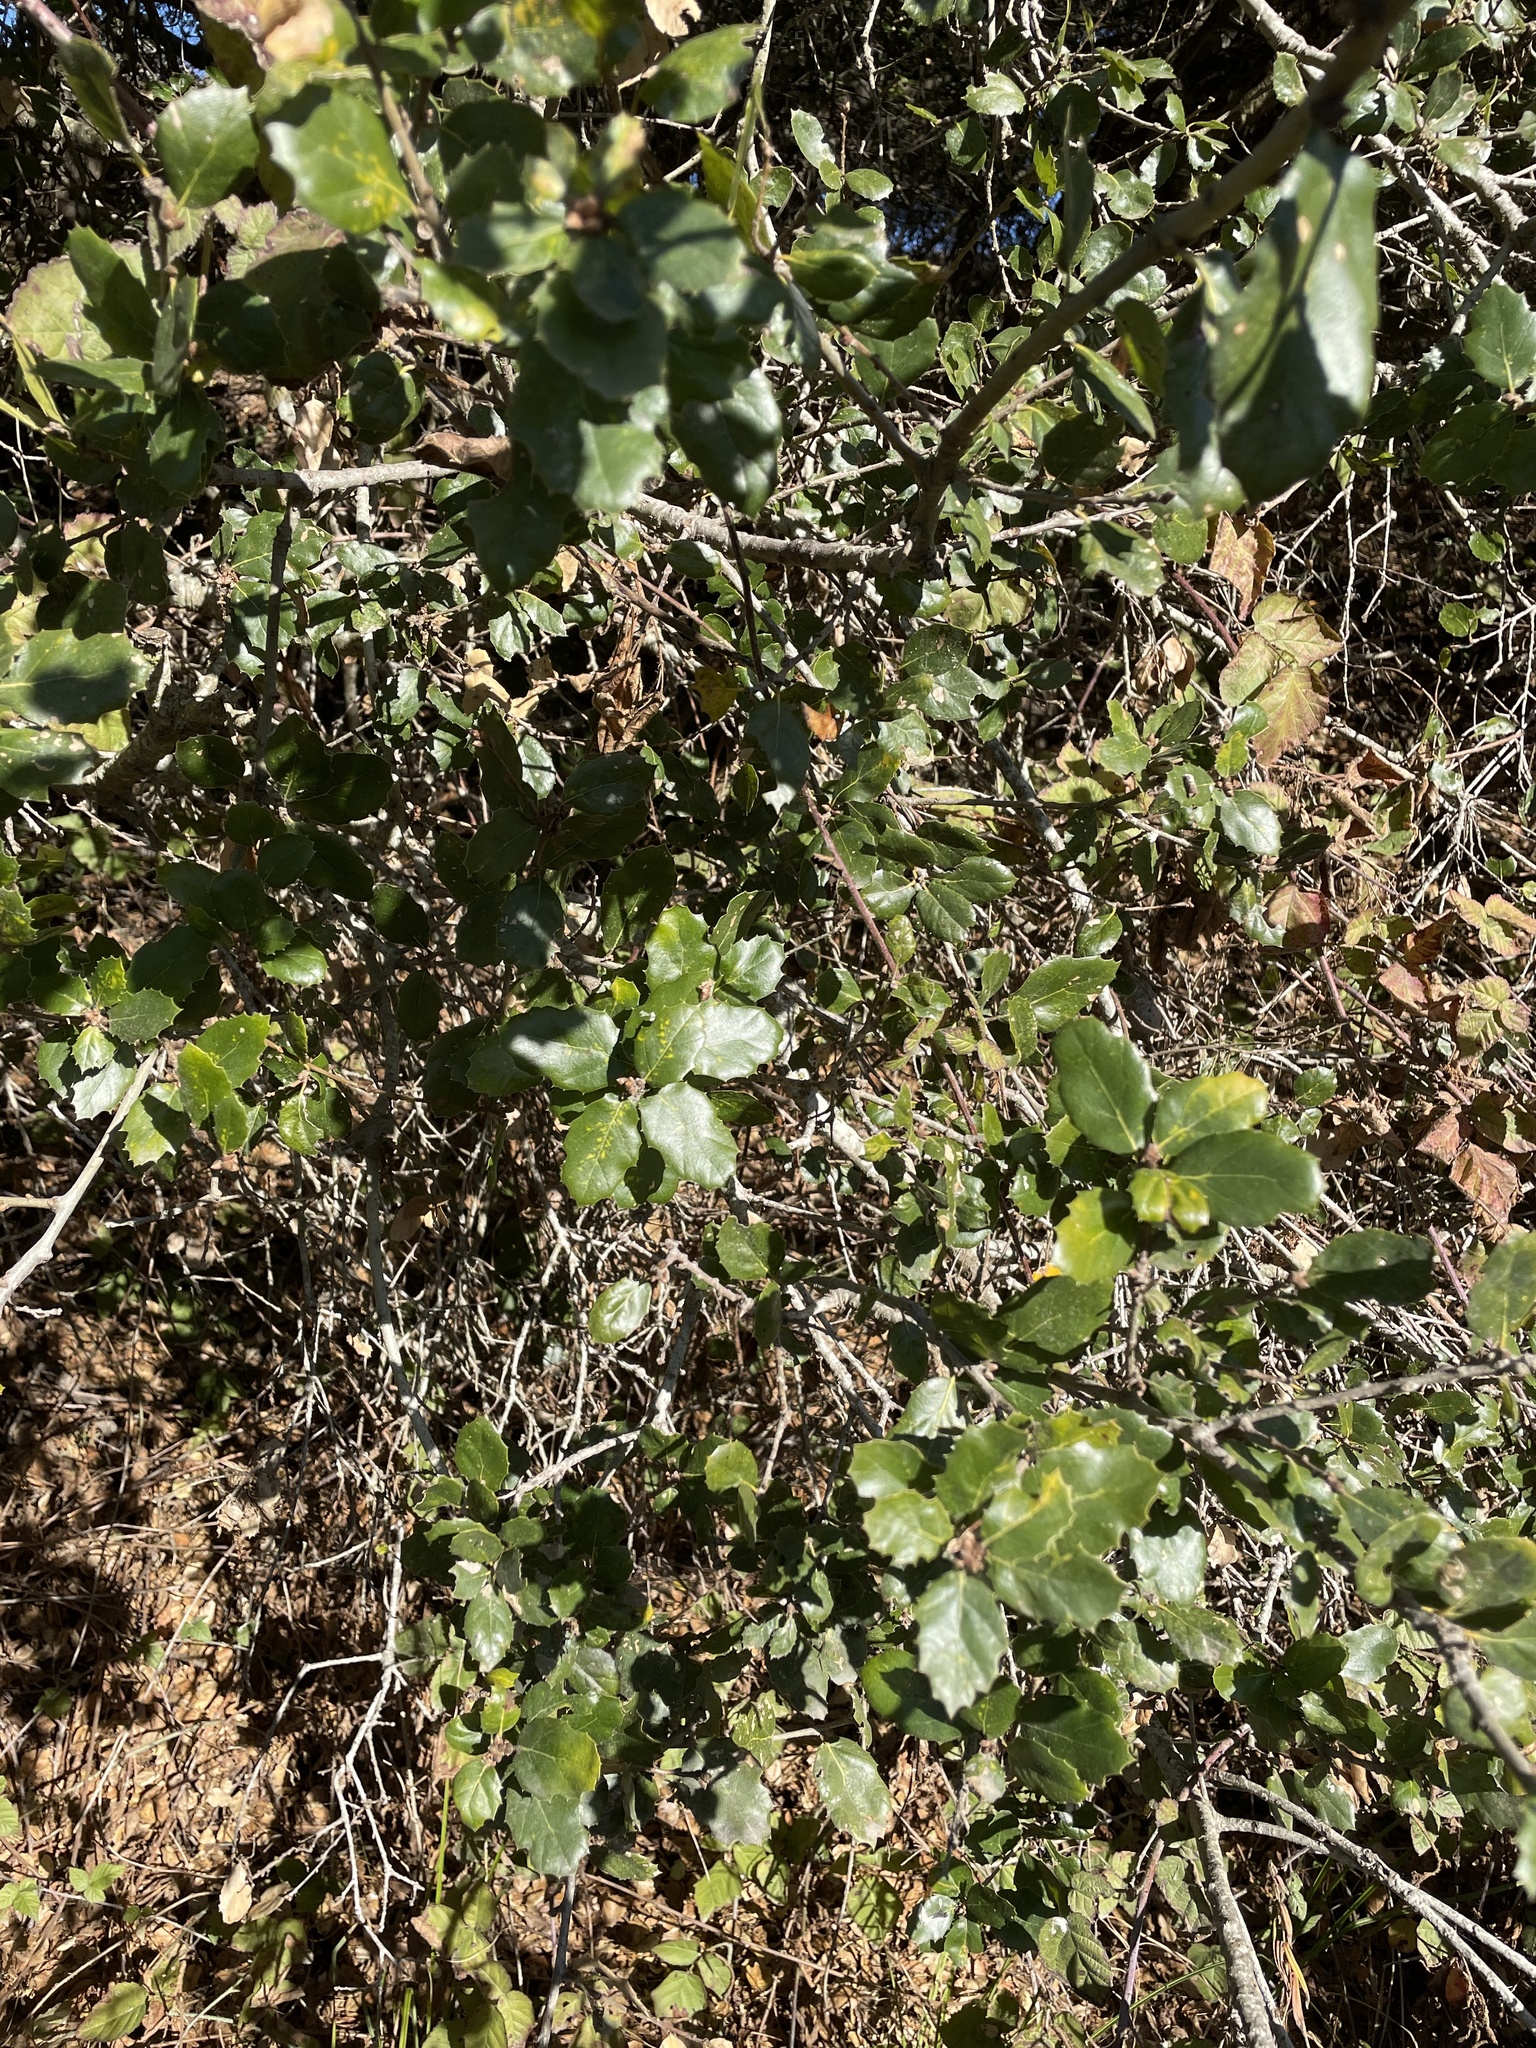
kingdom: Plantae
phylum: Tracheophyta
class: Magnoliopsida
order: Fagales
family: Fagaceae
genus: Quercus
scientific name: Quercus agrifolia
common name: California live oak
